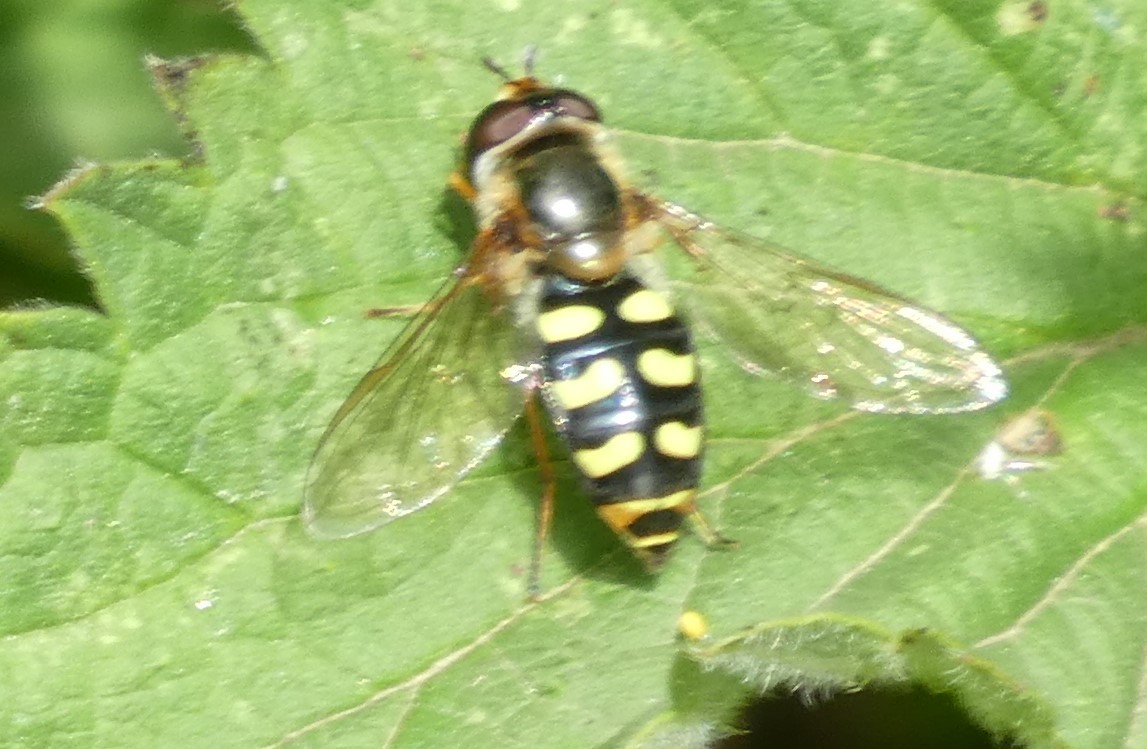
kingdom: Animalia
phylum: Arthropoda
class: Insecta
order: Diptera
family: Syrphidae
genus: Eupeodes
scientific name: Eupeodes
